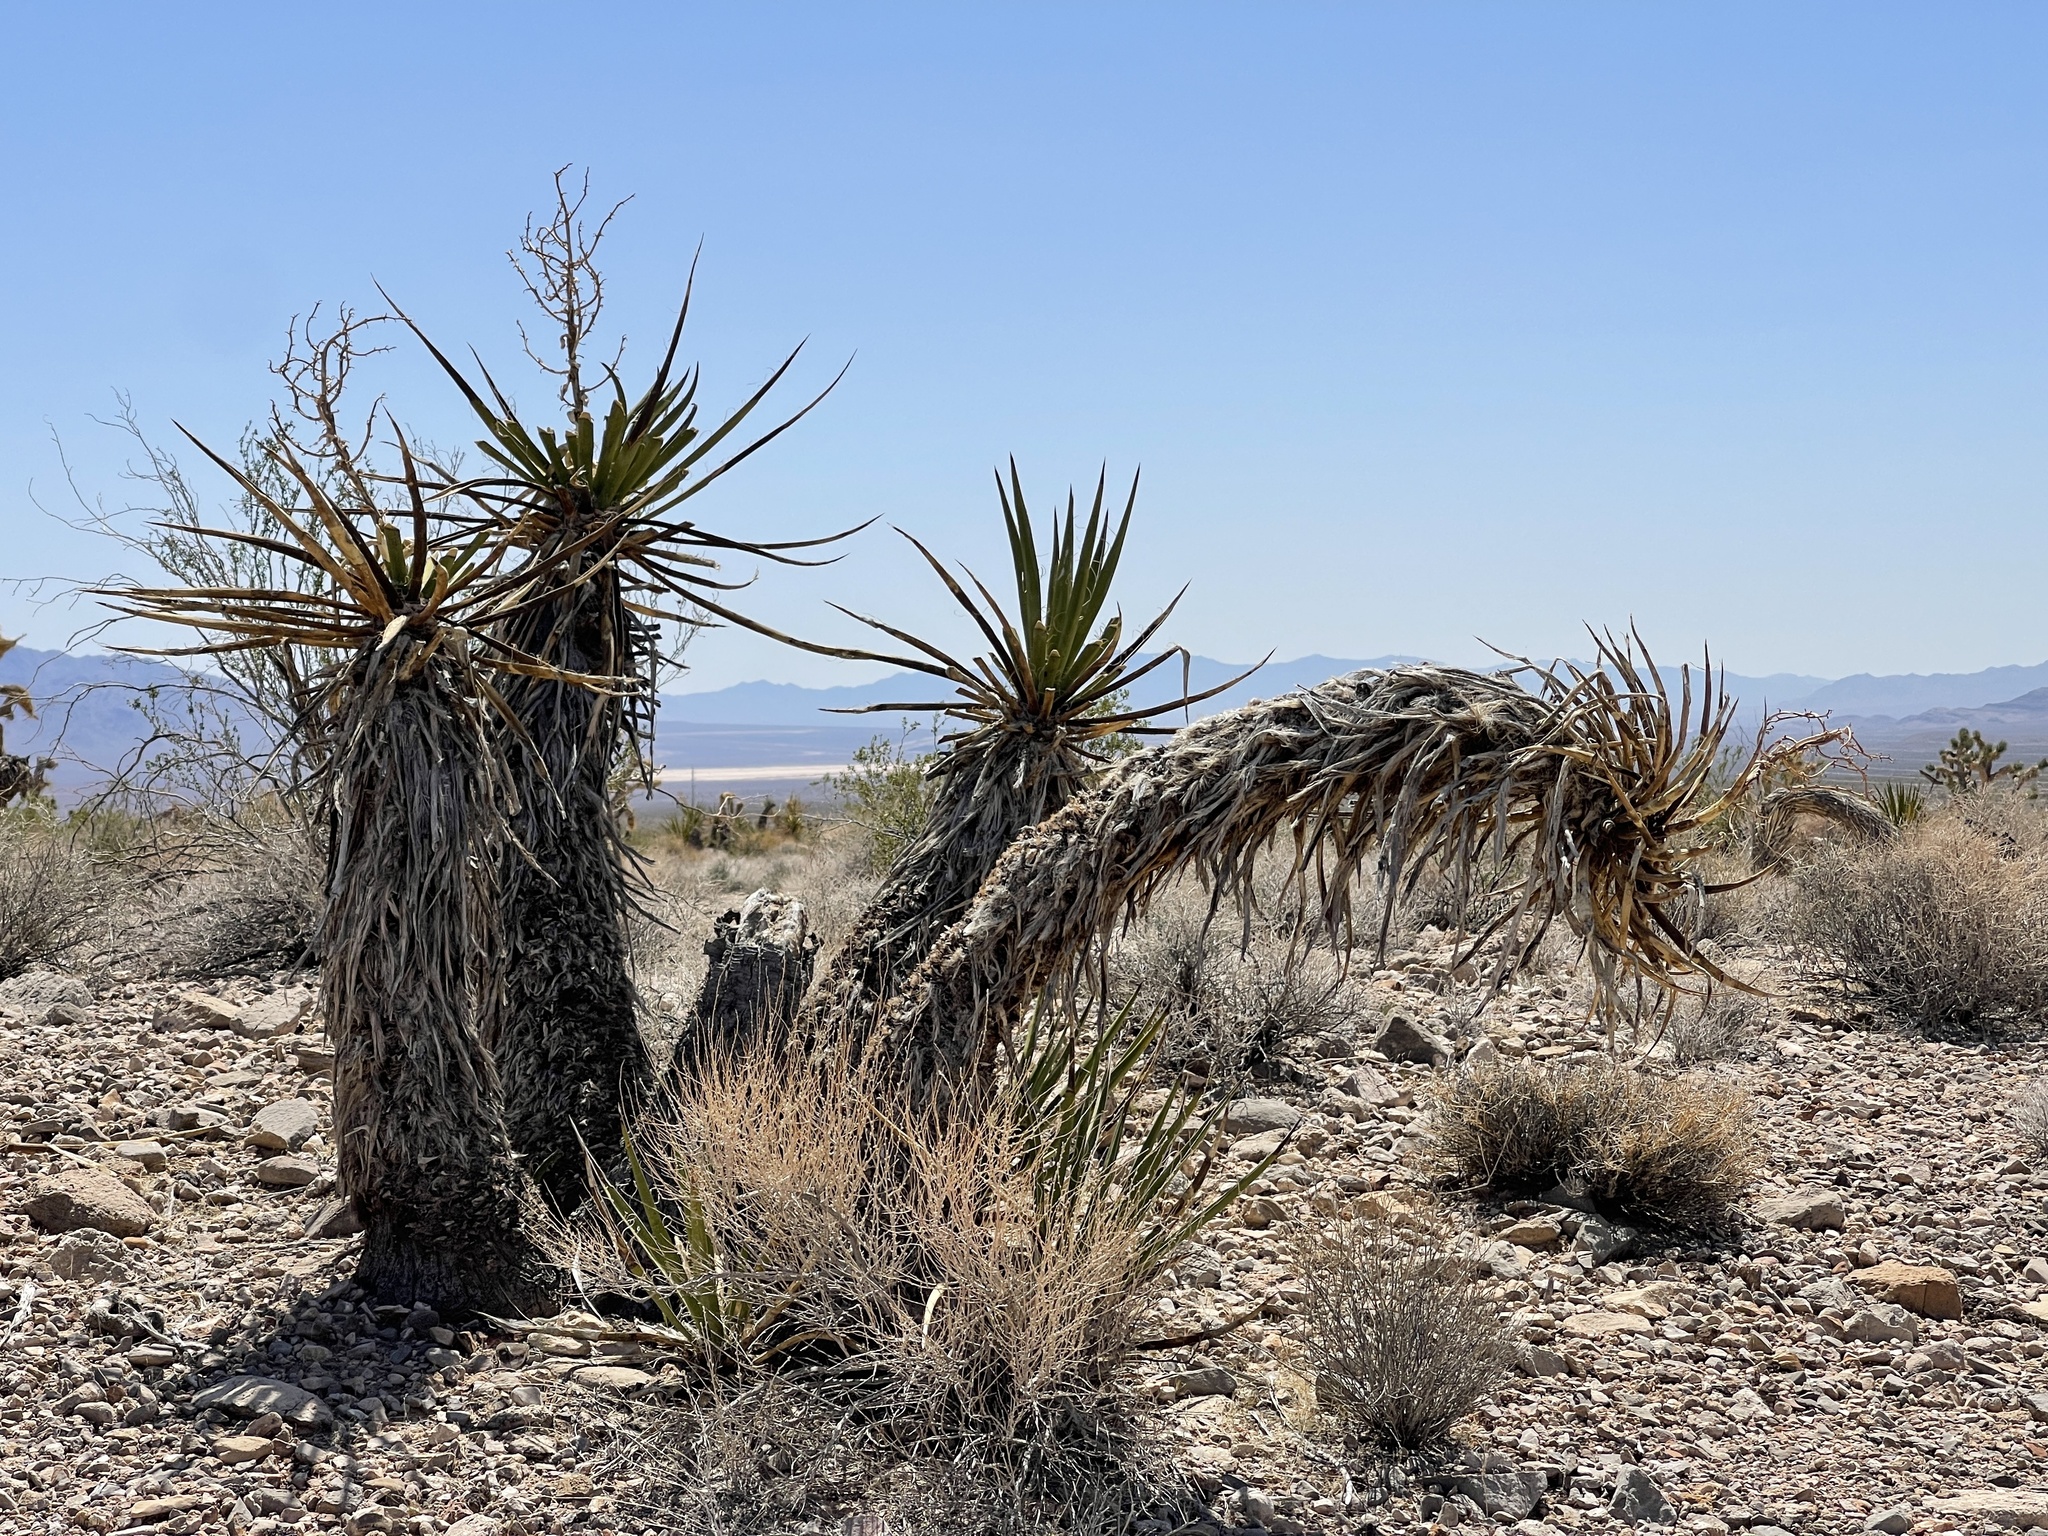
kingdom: Plantae
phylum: Tracheophyta
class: Liliopsida
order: Asparagales
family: Asparagaceae
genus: Yucca
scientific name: Yucca schidigera
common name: Mojave yucca
